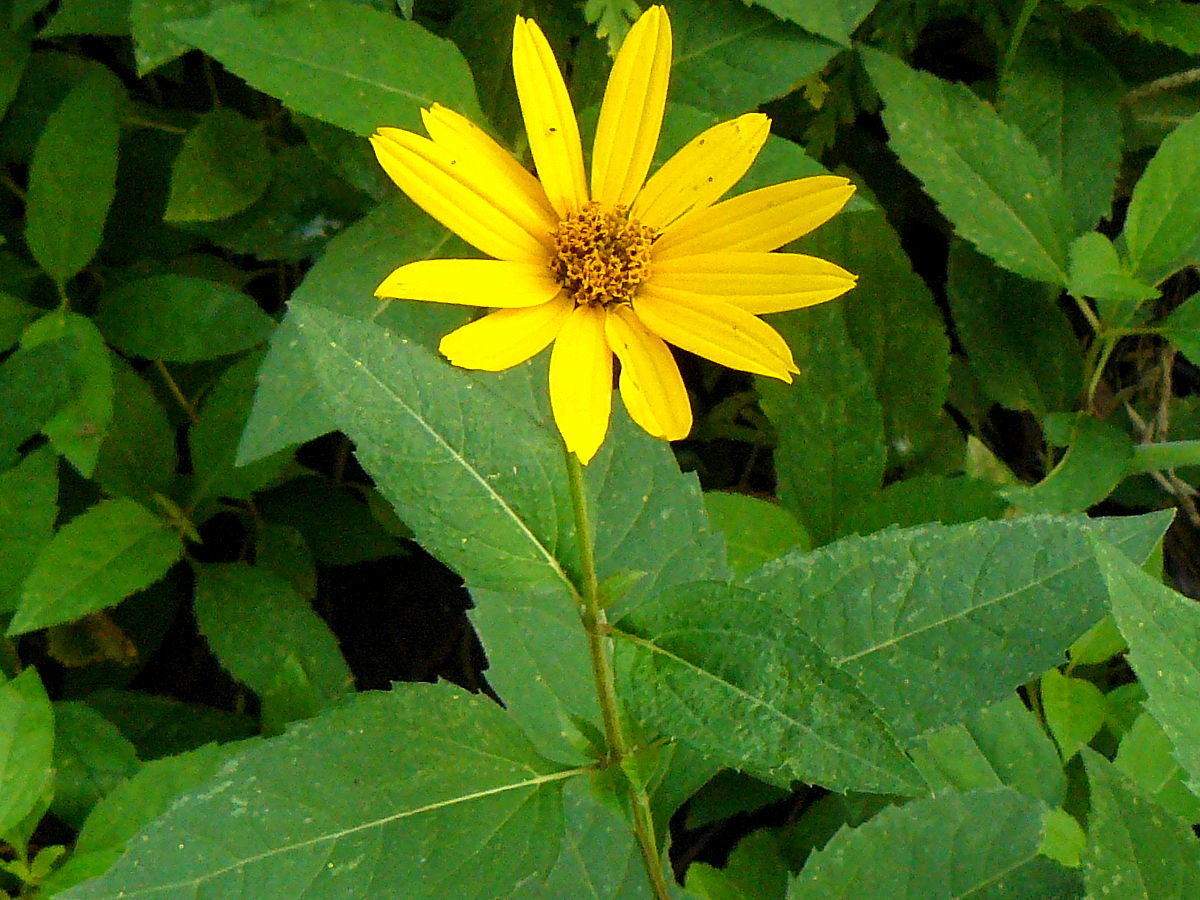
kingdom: Plantae
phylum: Tracheophyta
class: Magnoliopsida
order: Asterales
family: Asteraceae
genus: Helianthus
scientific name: Helianthus divaricatus
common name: Divergent sunflower
